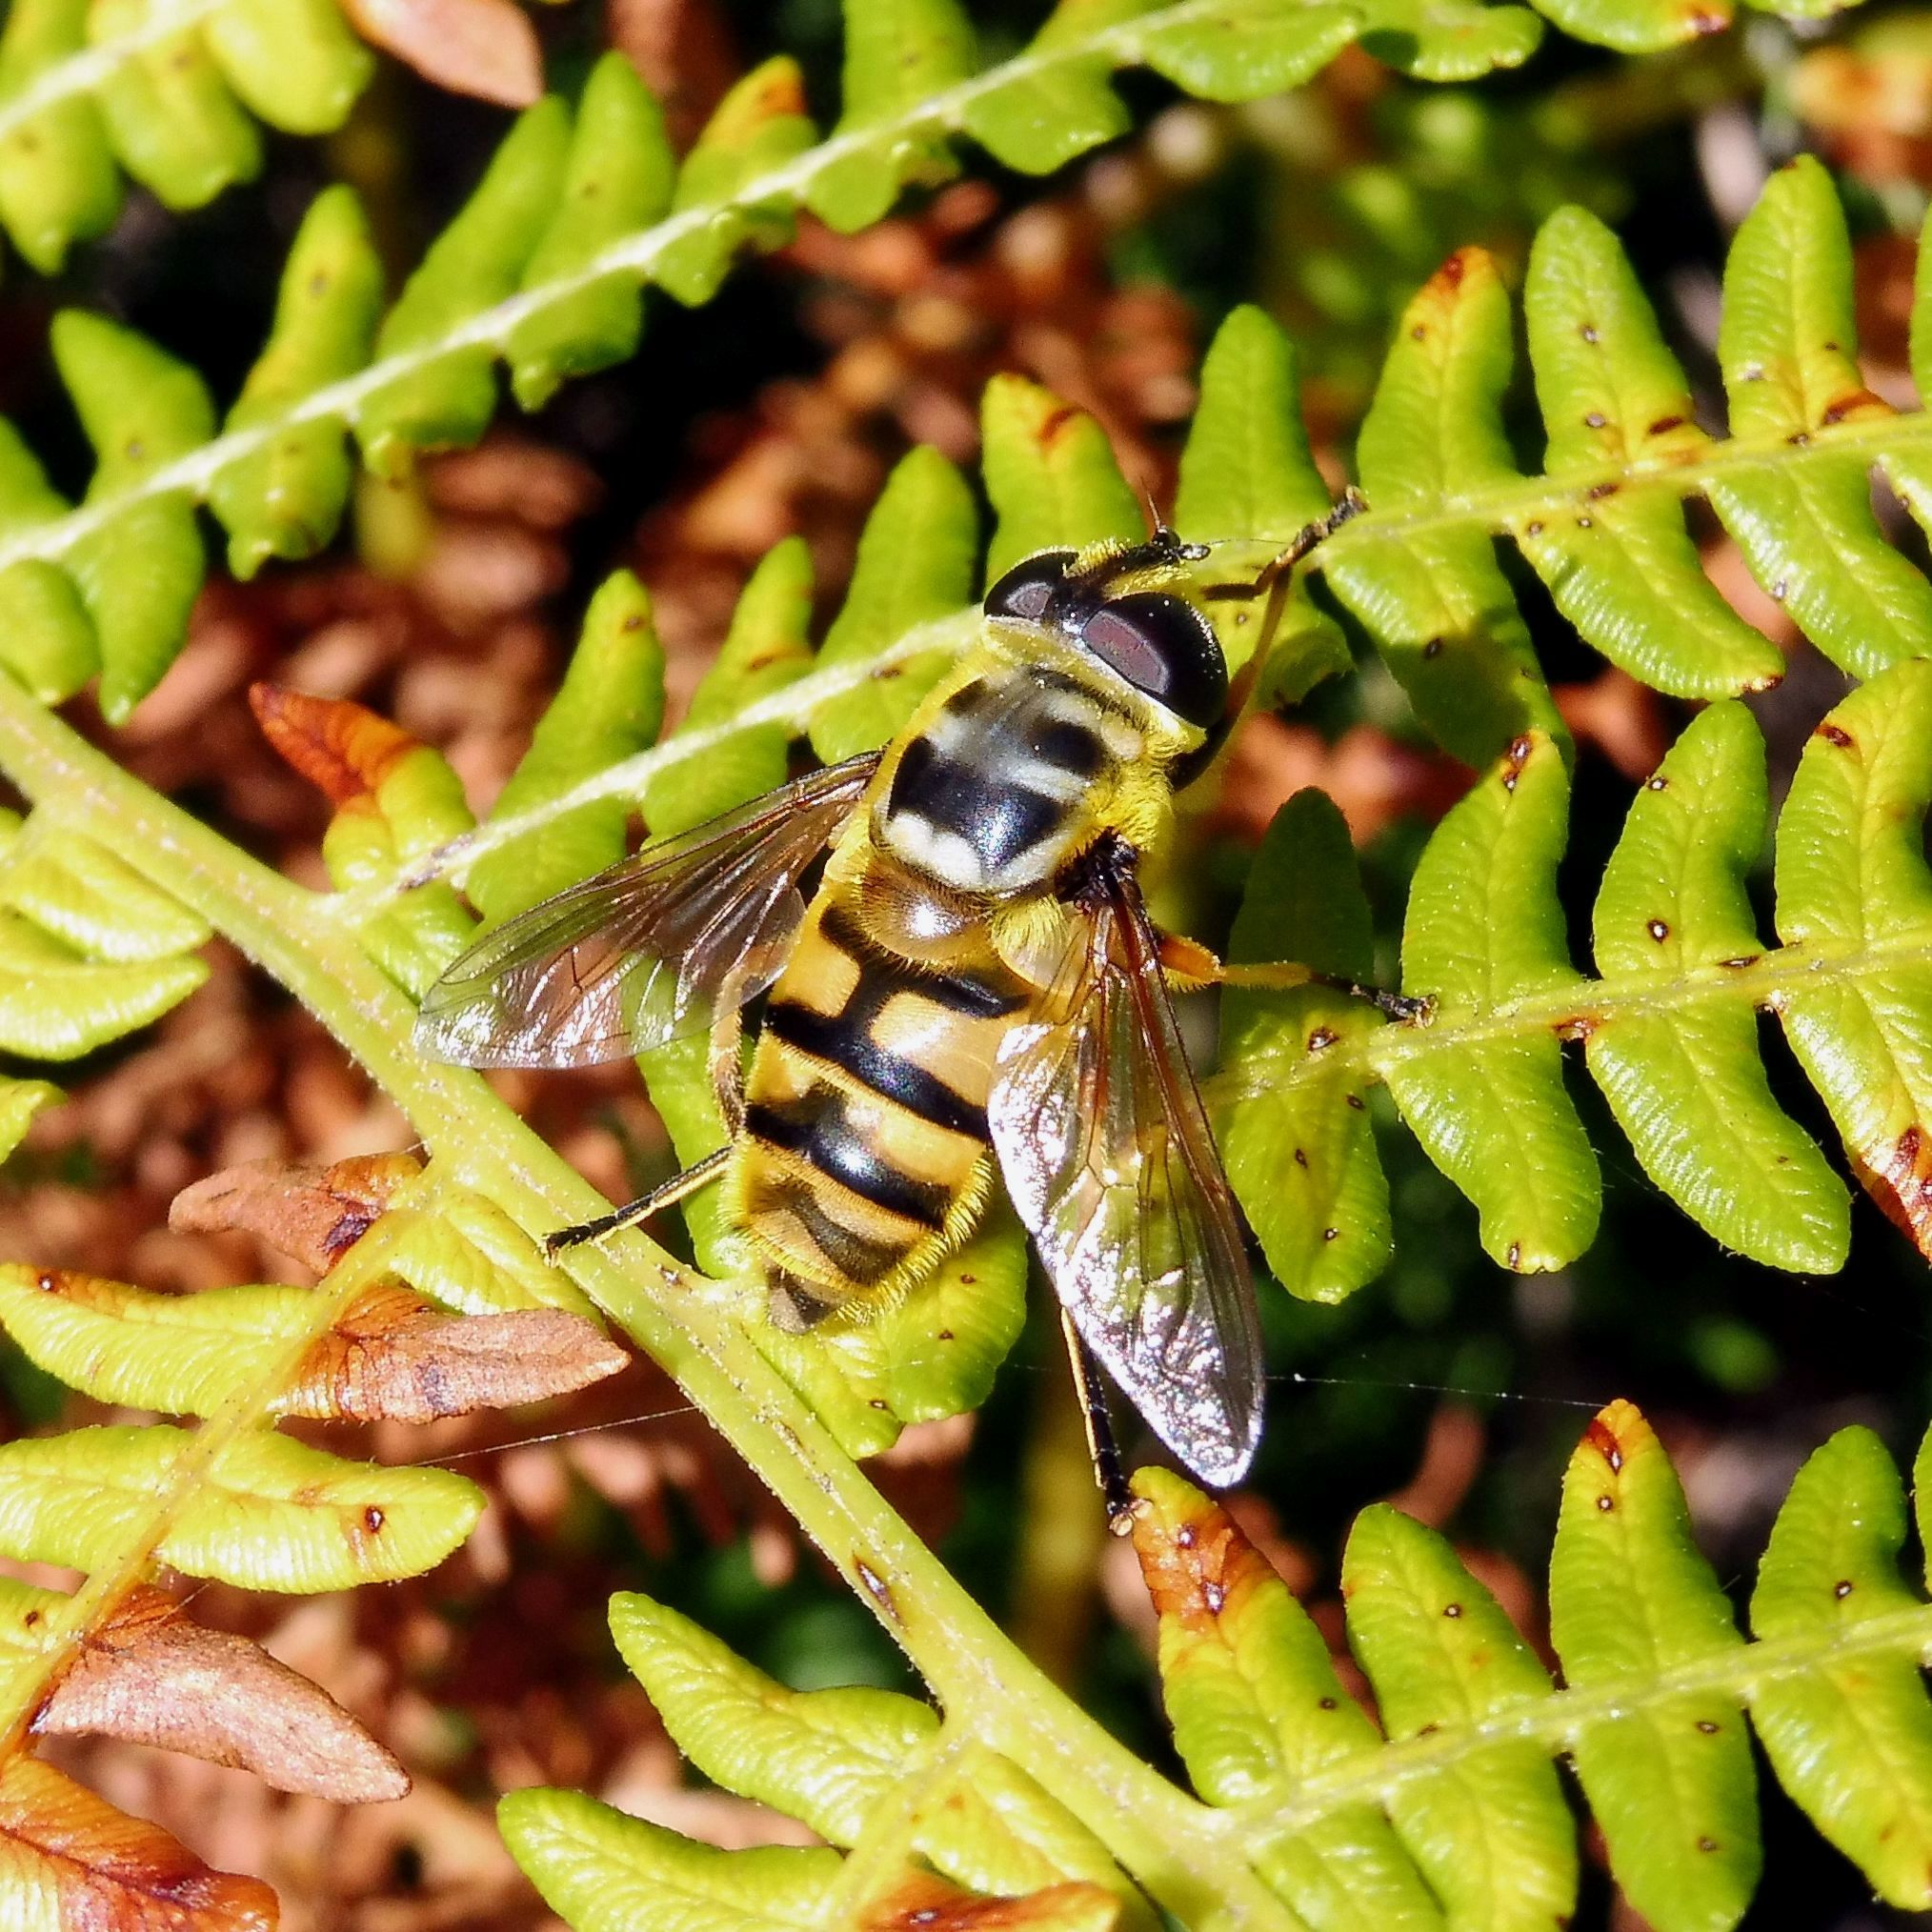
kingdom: Animalia
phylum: Arthropoda
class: Insecta
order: Diptera
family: Syrphidae
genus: Myathropa
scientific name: Myathropa florea
